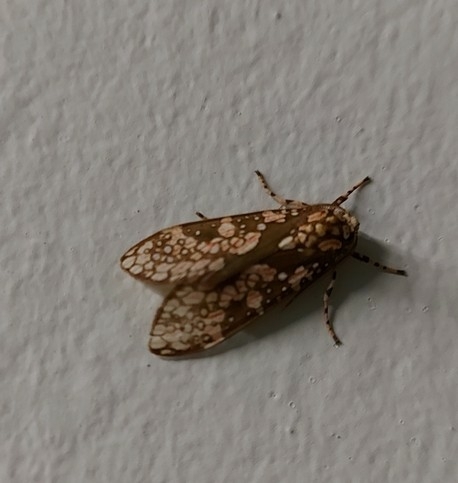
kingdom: Animalia
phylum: Arthropoda
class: Insecta
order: Lepidoptera
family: Erebidae
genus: Cresera
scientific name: Cresera silvestrii
